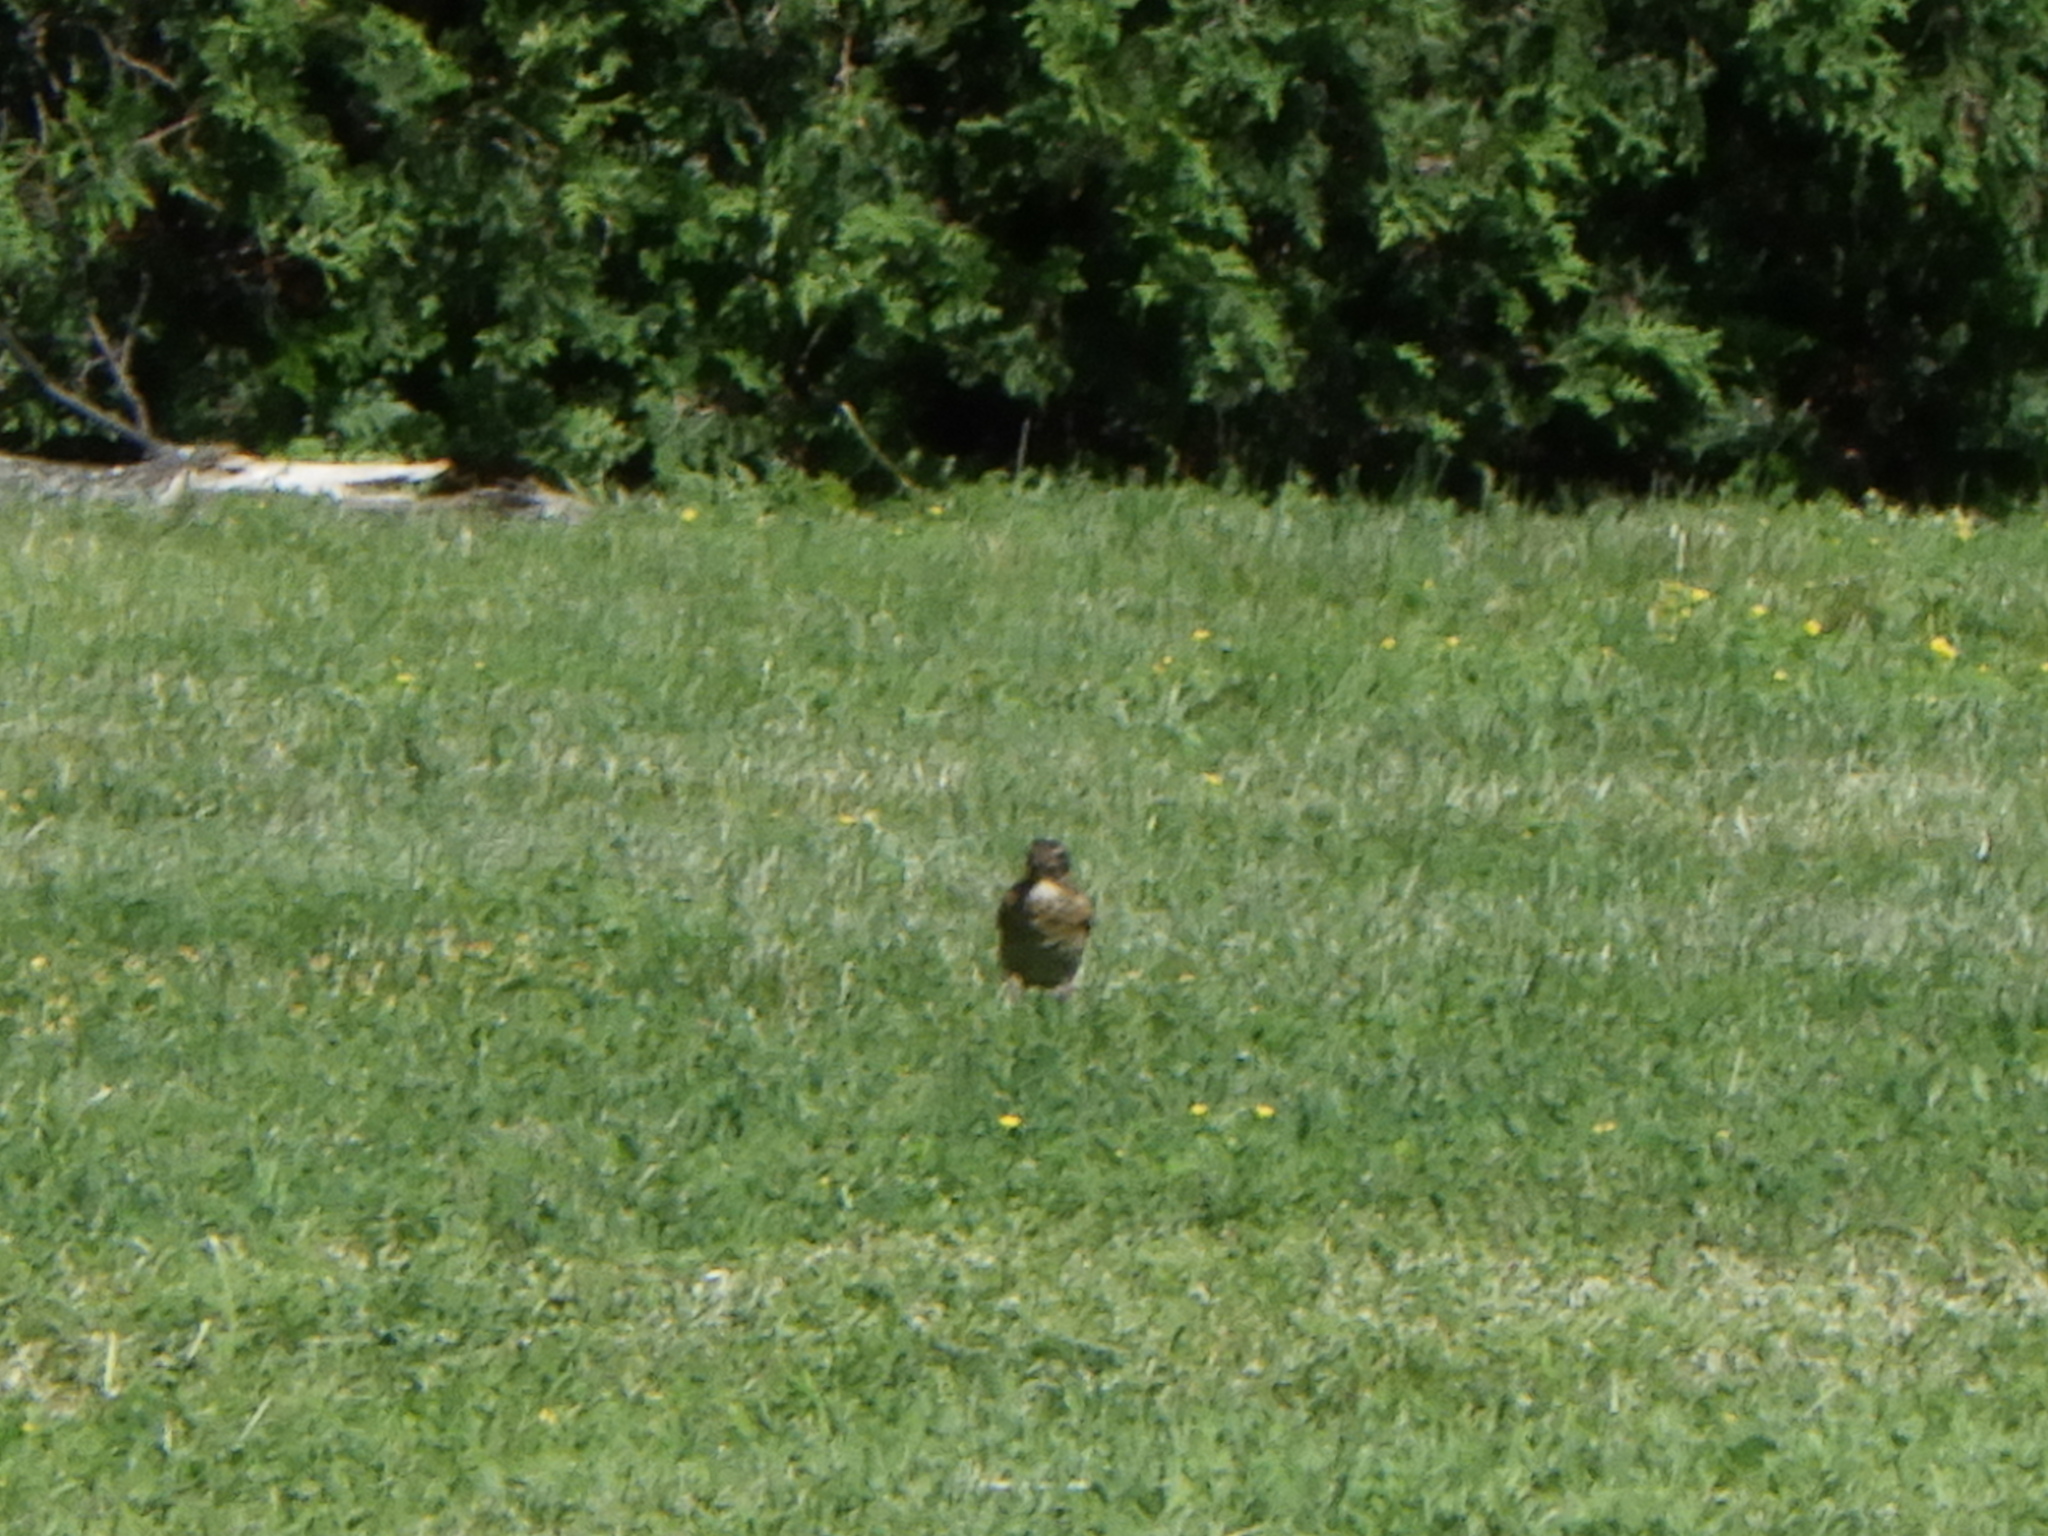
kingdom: Animalia
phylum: Chordata
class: Aves
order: Passeriformes
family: Turdidae
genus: Turdus
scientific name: Turdus migratorius
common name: American robin
